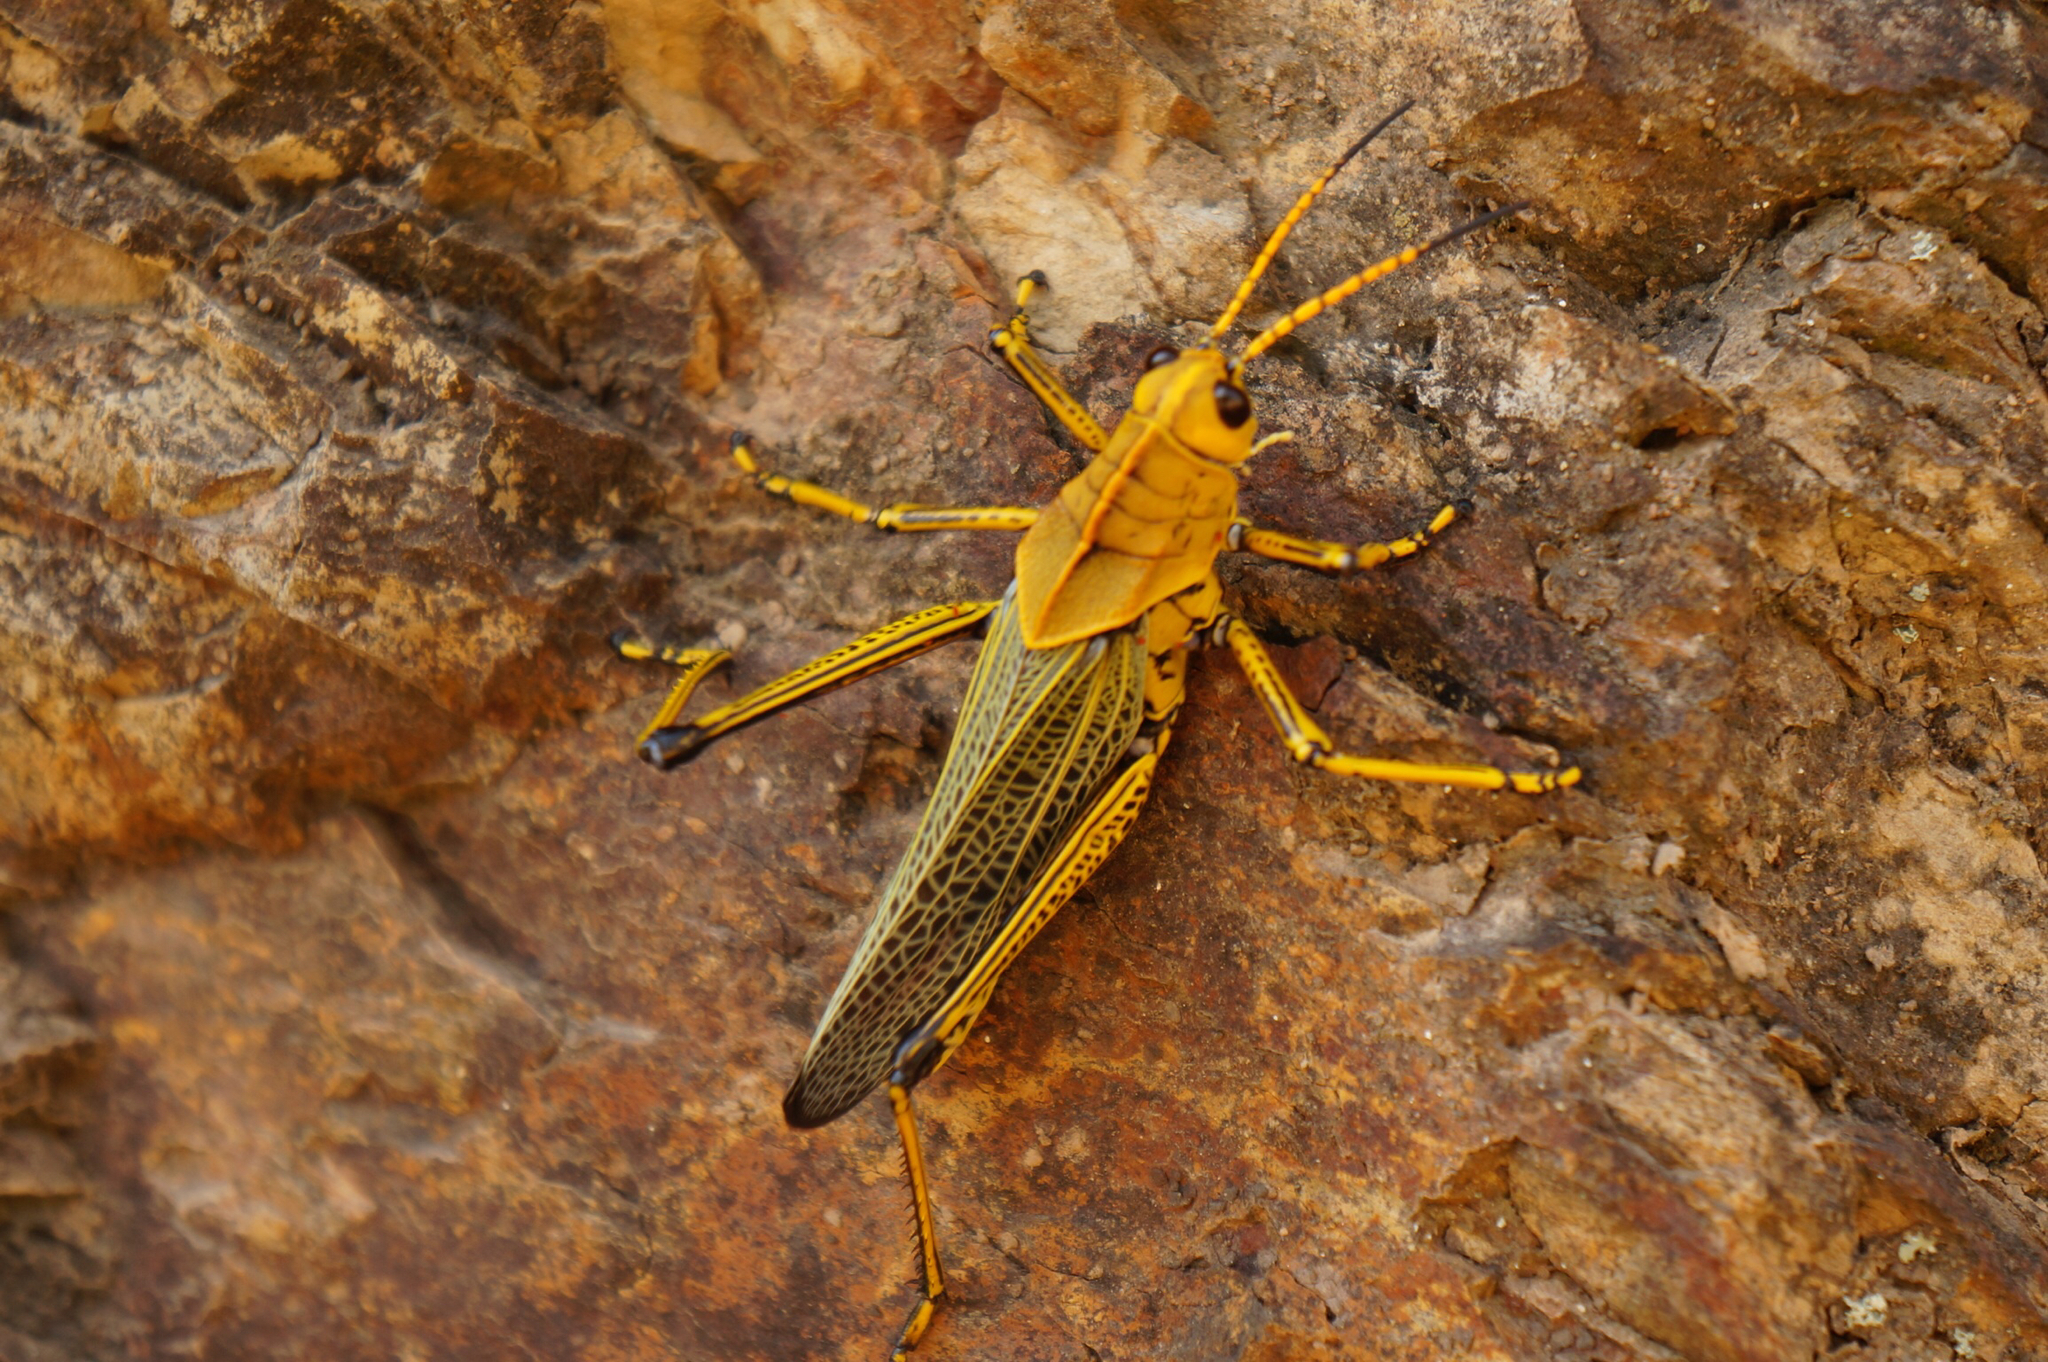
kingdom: Animalia
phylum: Arthropoda
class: Insecta
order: Orthoptera
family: Romaleidae
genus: Romalea
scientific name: Romalea
